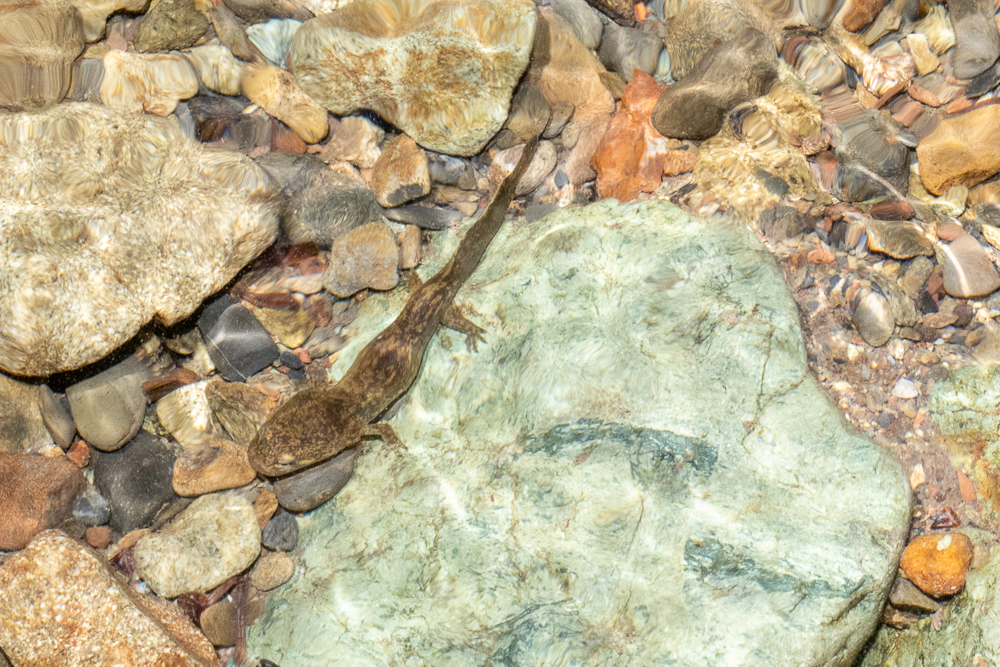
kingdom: Animalia
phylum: Chordata
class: Amphibia
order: Caudata
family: Ambystomatidae
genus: Dicamptodon
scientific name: Dicamptodon ensatus
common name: California giant salamander
